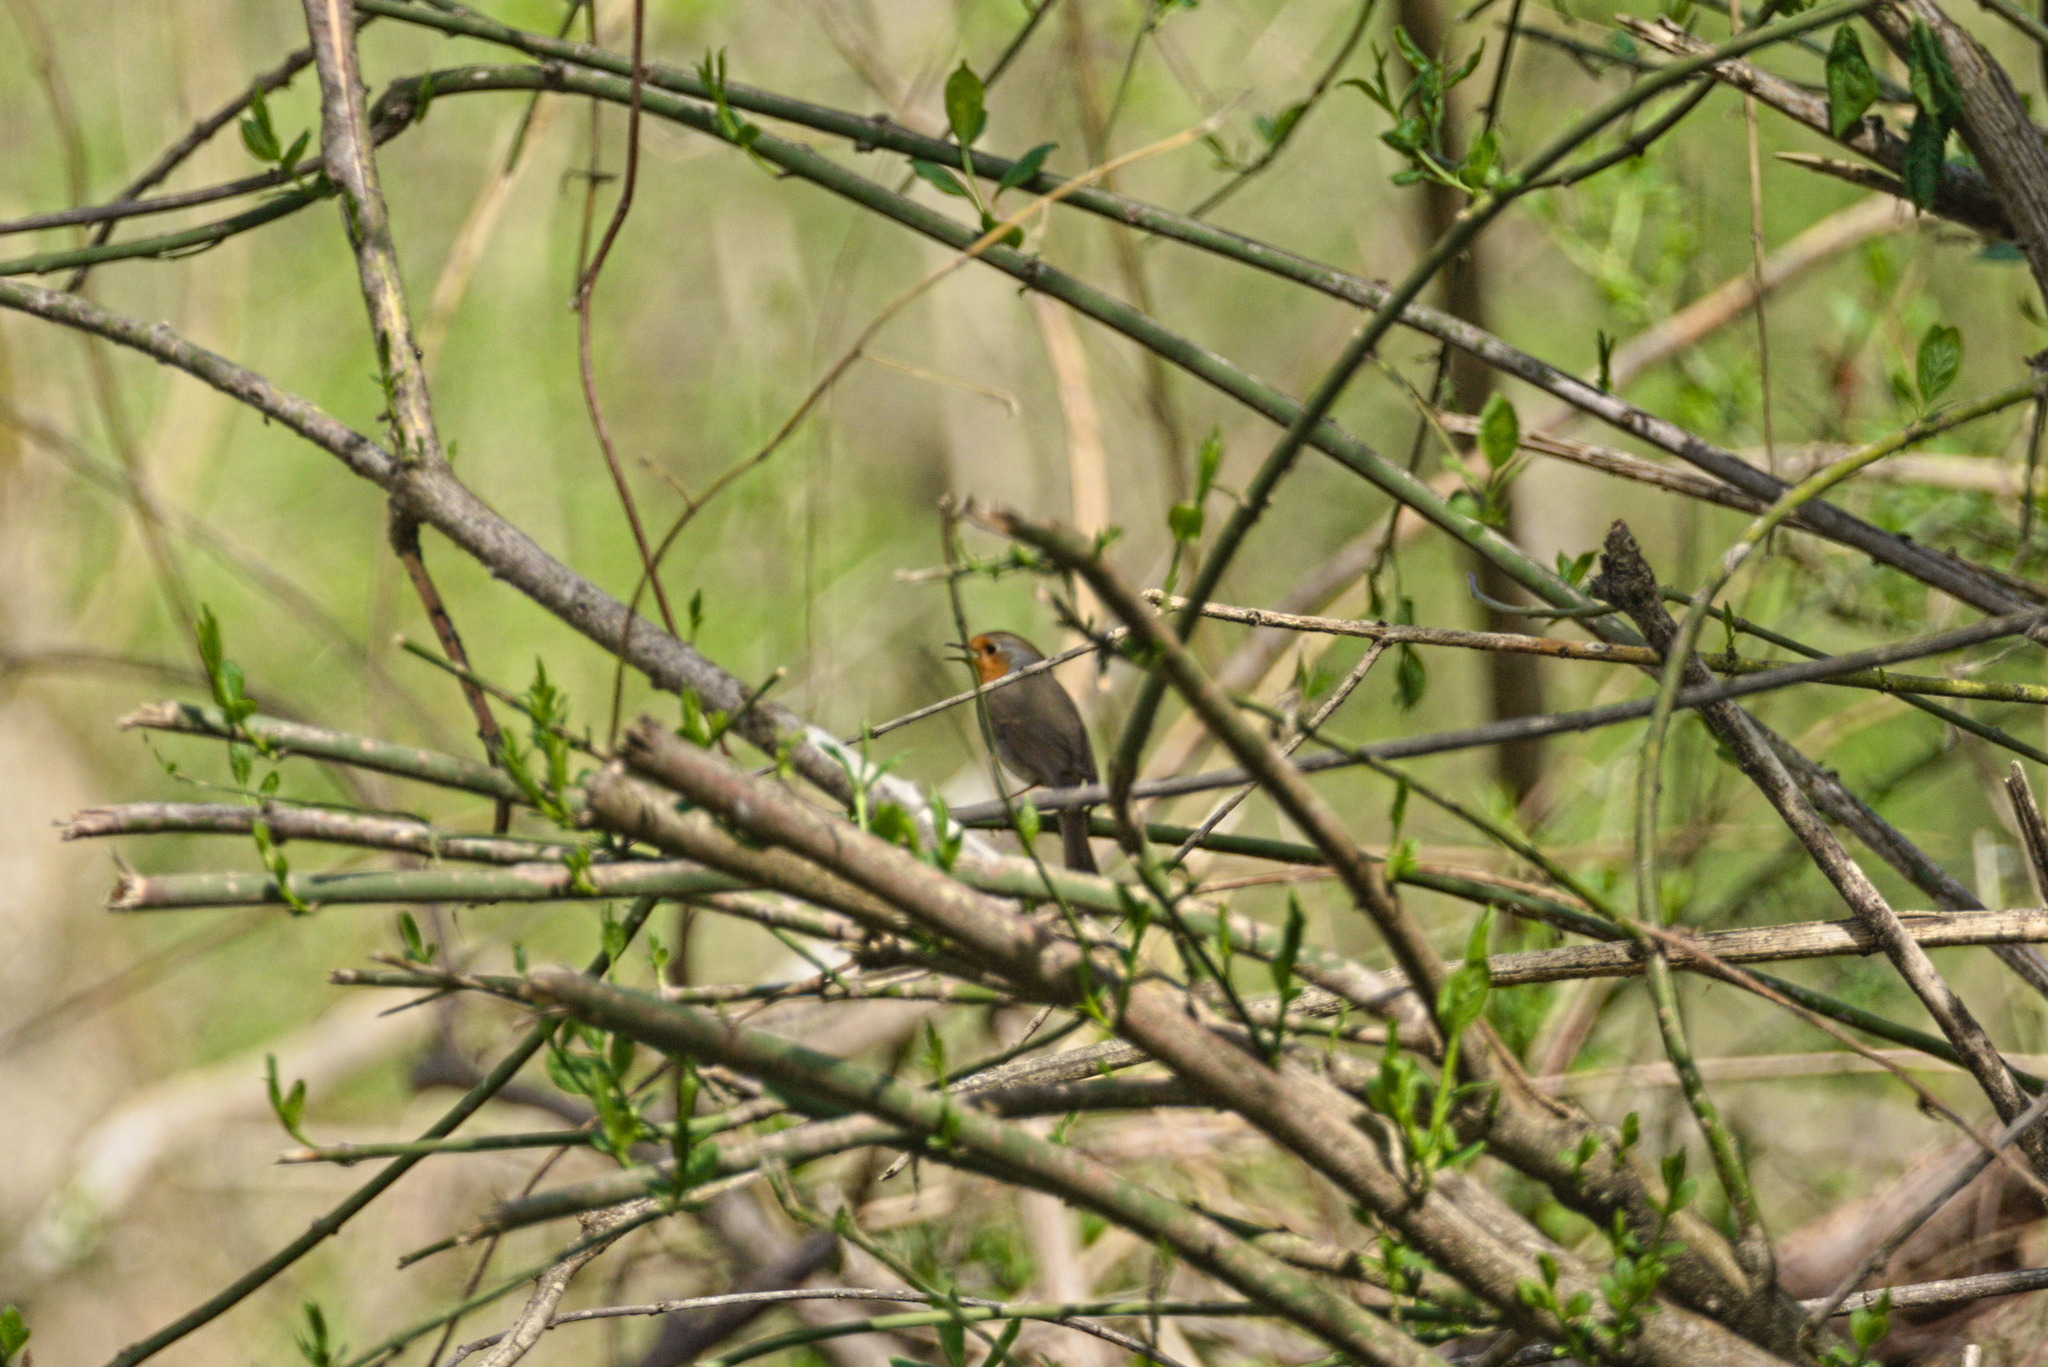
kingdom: Animalia
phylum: Chordata
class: Aves
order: Passeriformes
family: Muscicapidae
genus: Erithacus
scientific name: Erithacus rubecula
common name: European robin
